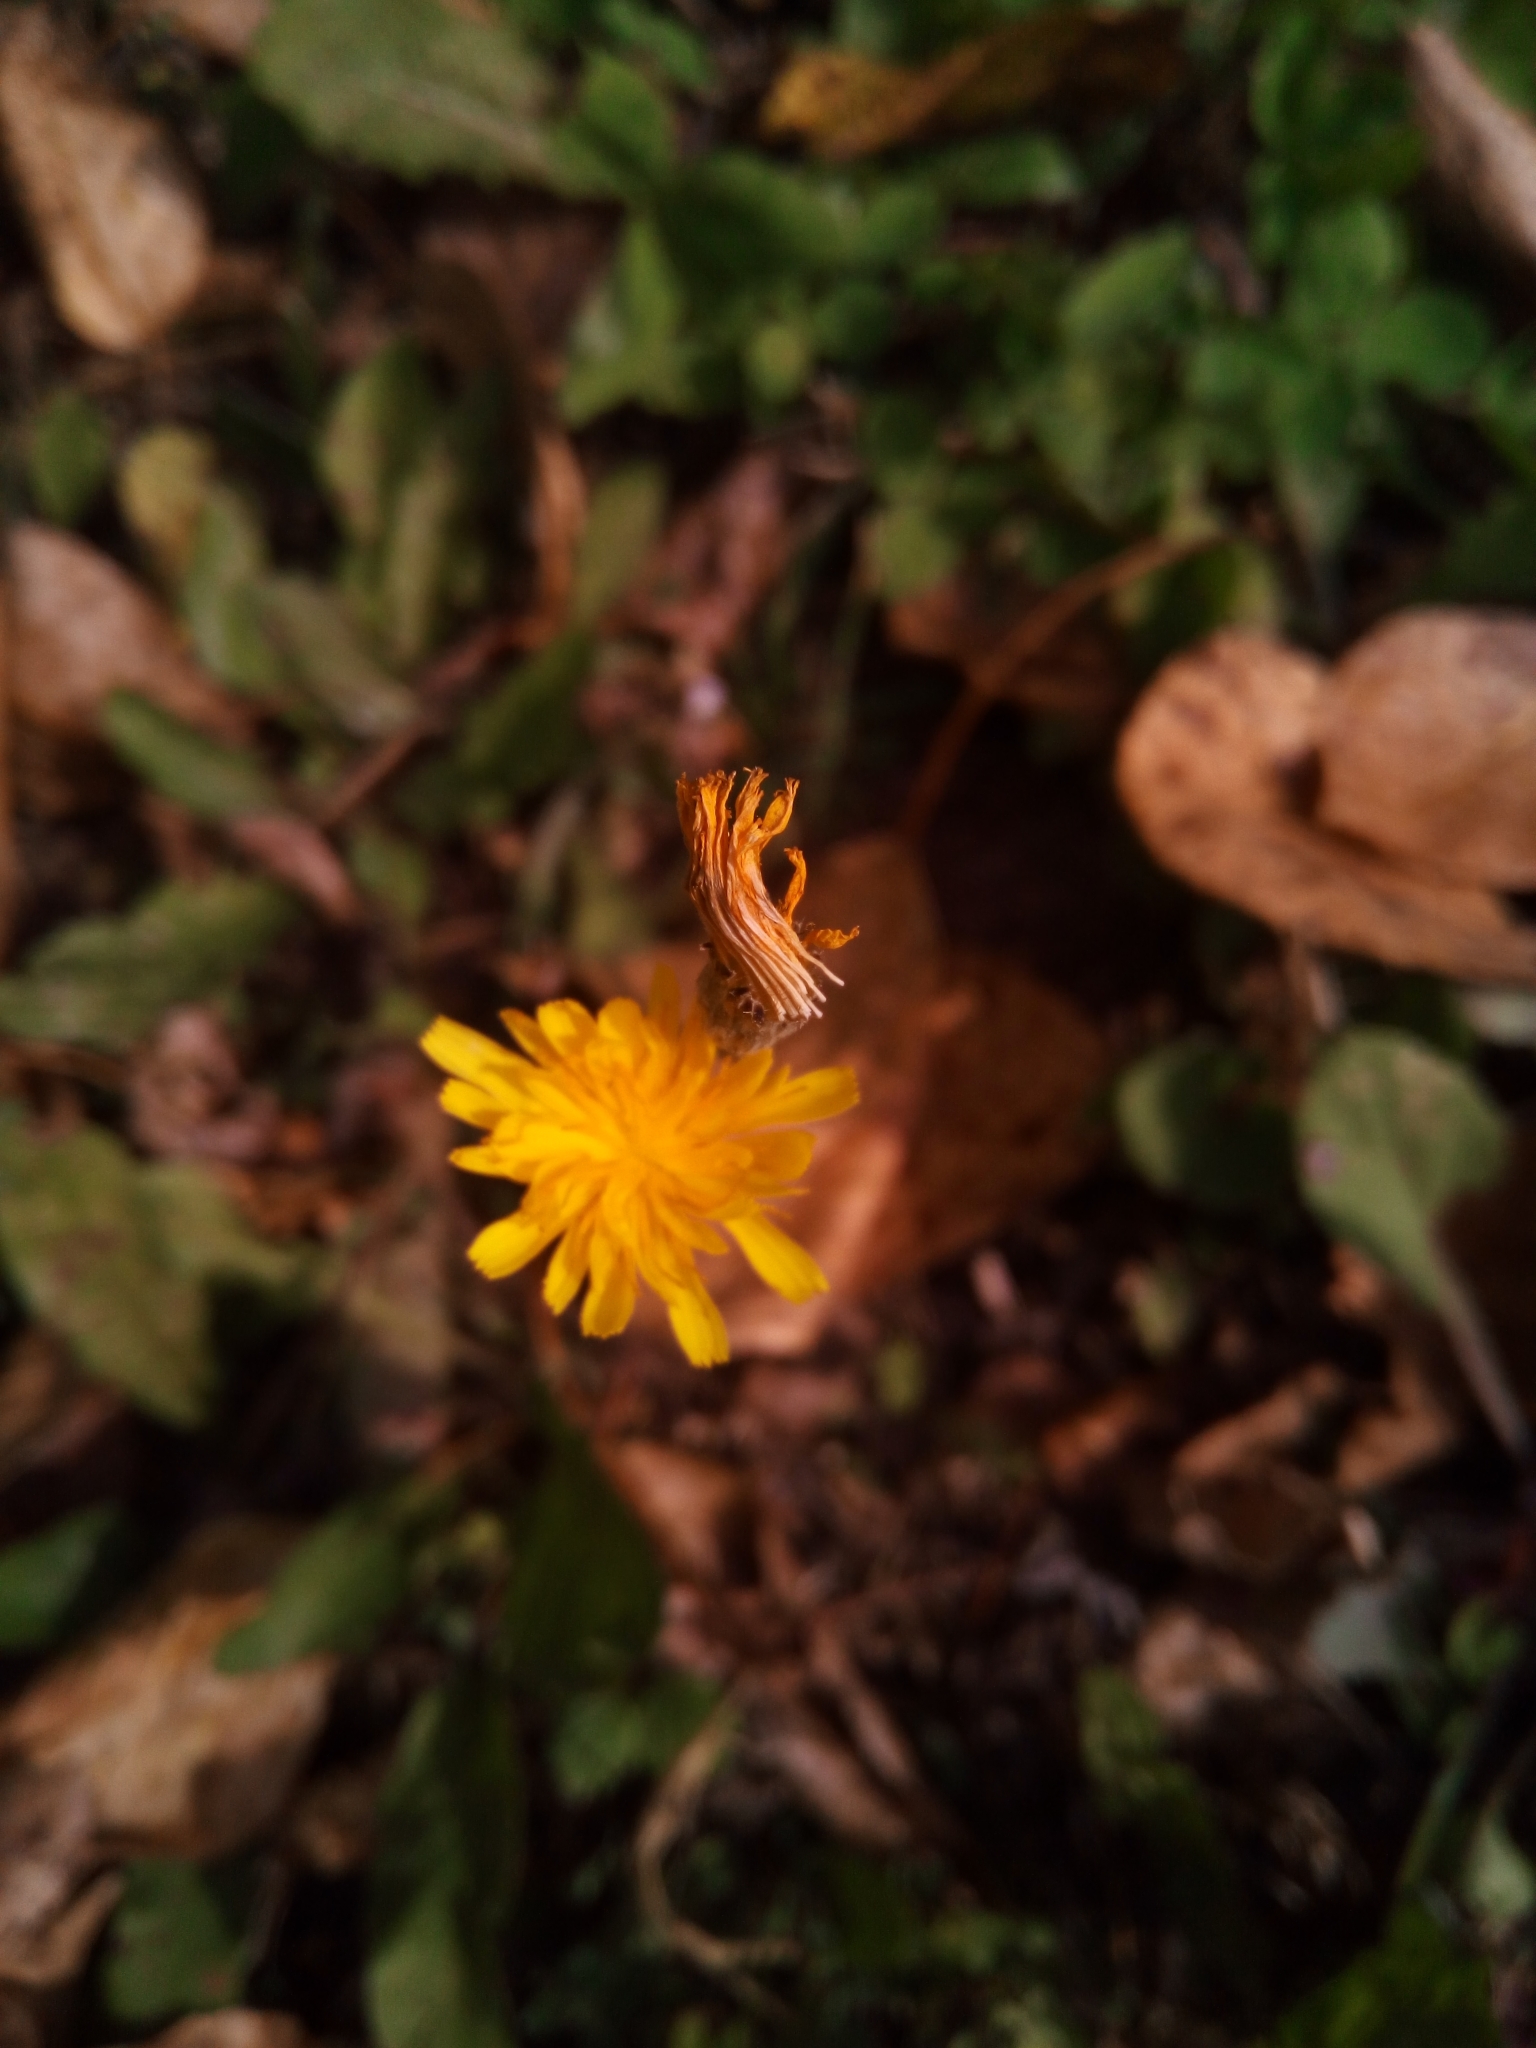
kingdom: Plantae
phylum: Tracheophyta
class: Magnoliopsida
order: Asterales
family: Asteraceae
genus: Scorzoneroides
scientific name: Scorzoneroides autumnalis
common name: Autumn hawkbit
